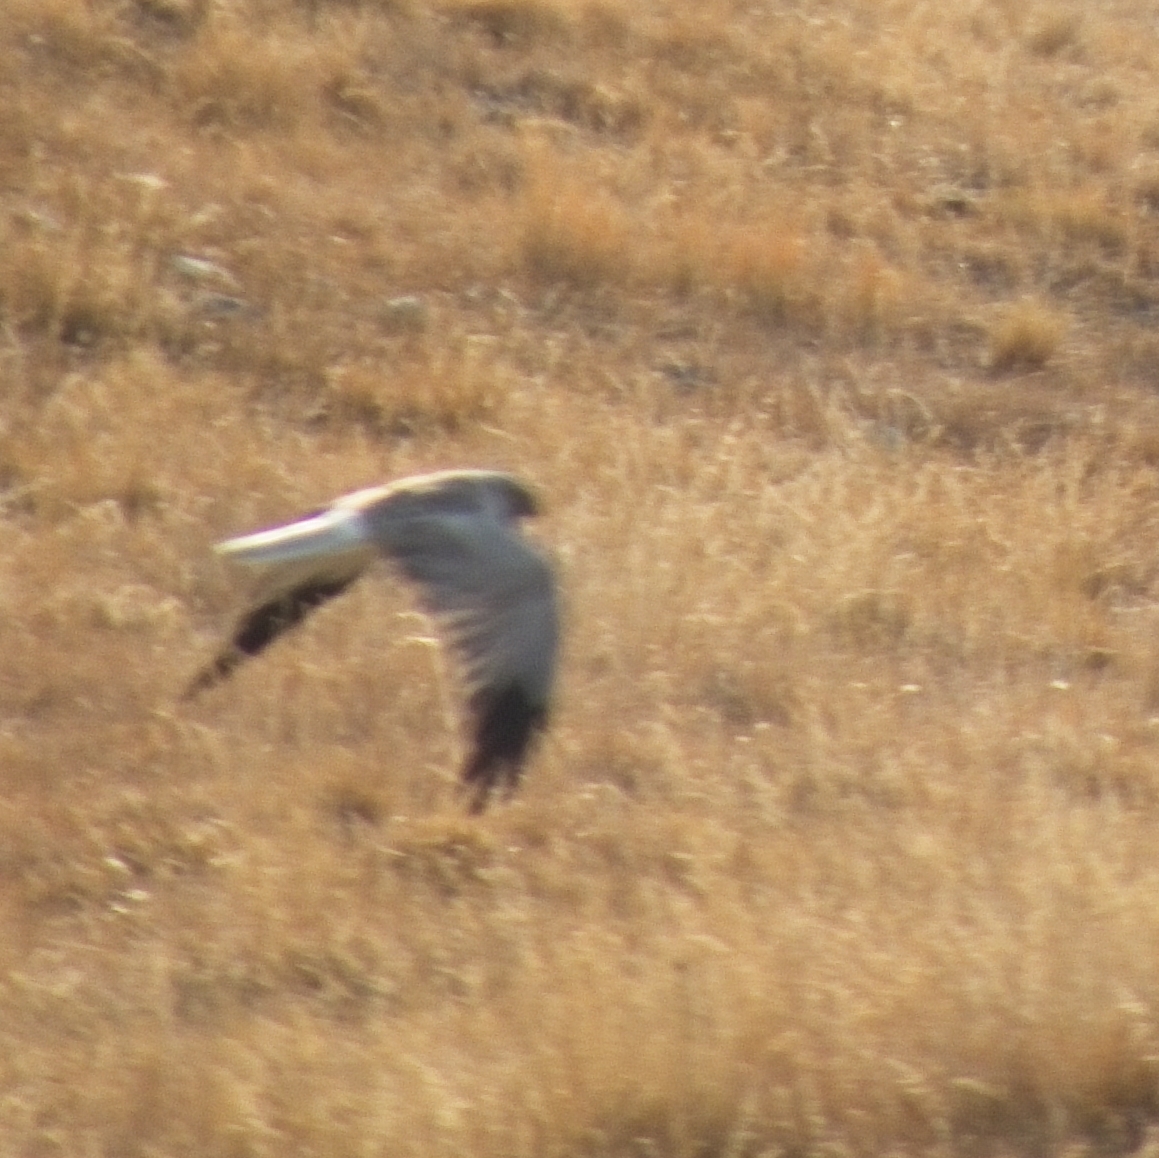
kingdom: Animalia
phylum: Chordata
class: Aves
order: Accipitriformes
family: Accipitridae
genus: Circus
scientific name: Circus cyaneus
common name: Hen harrier
